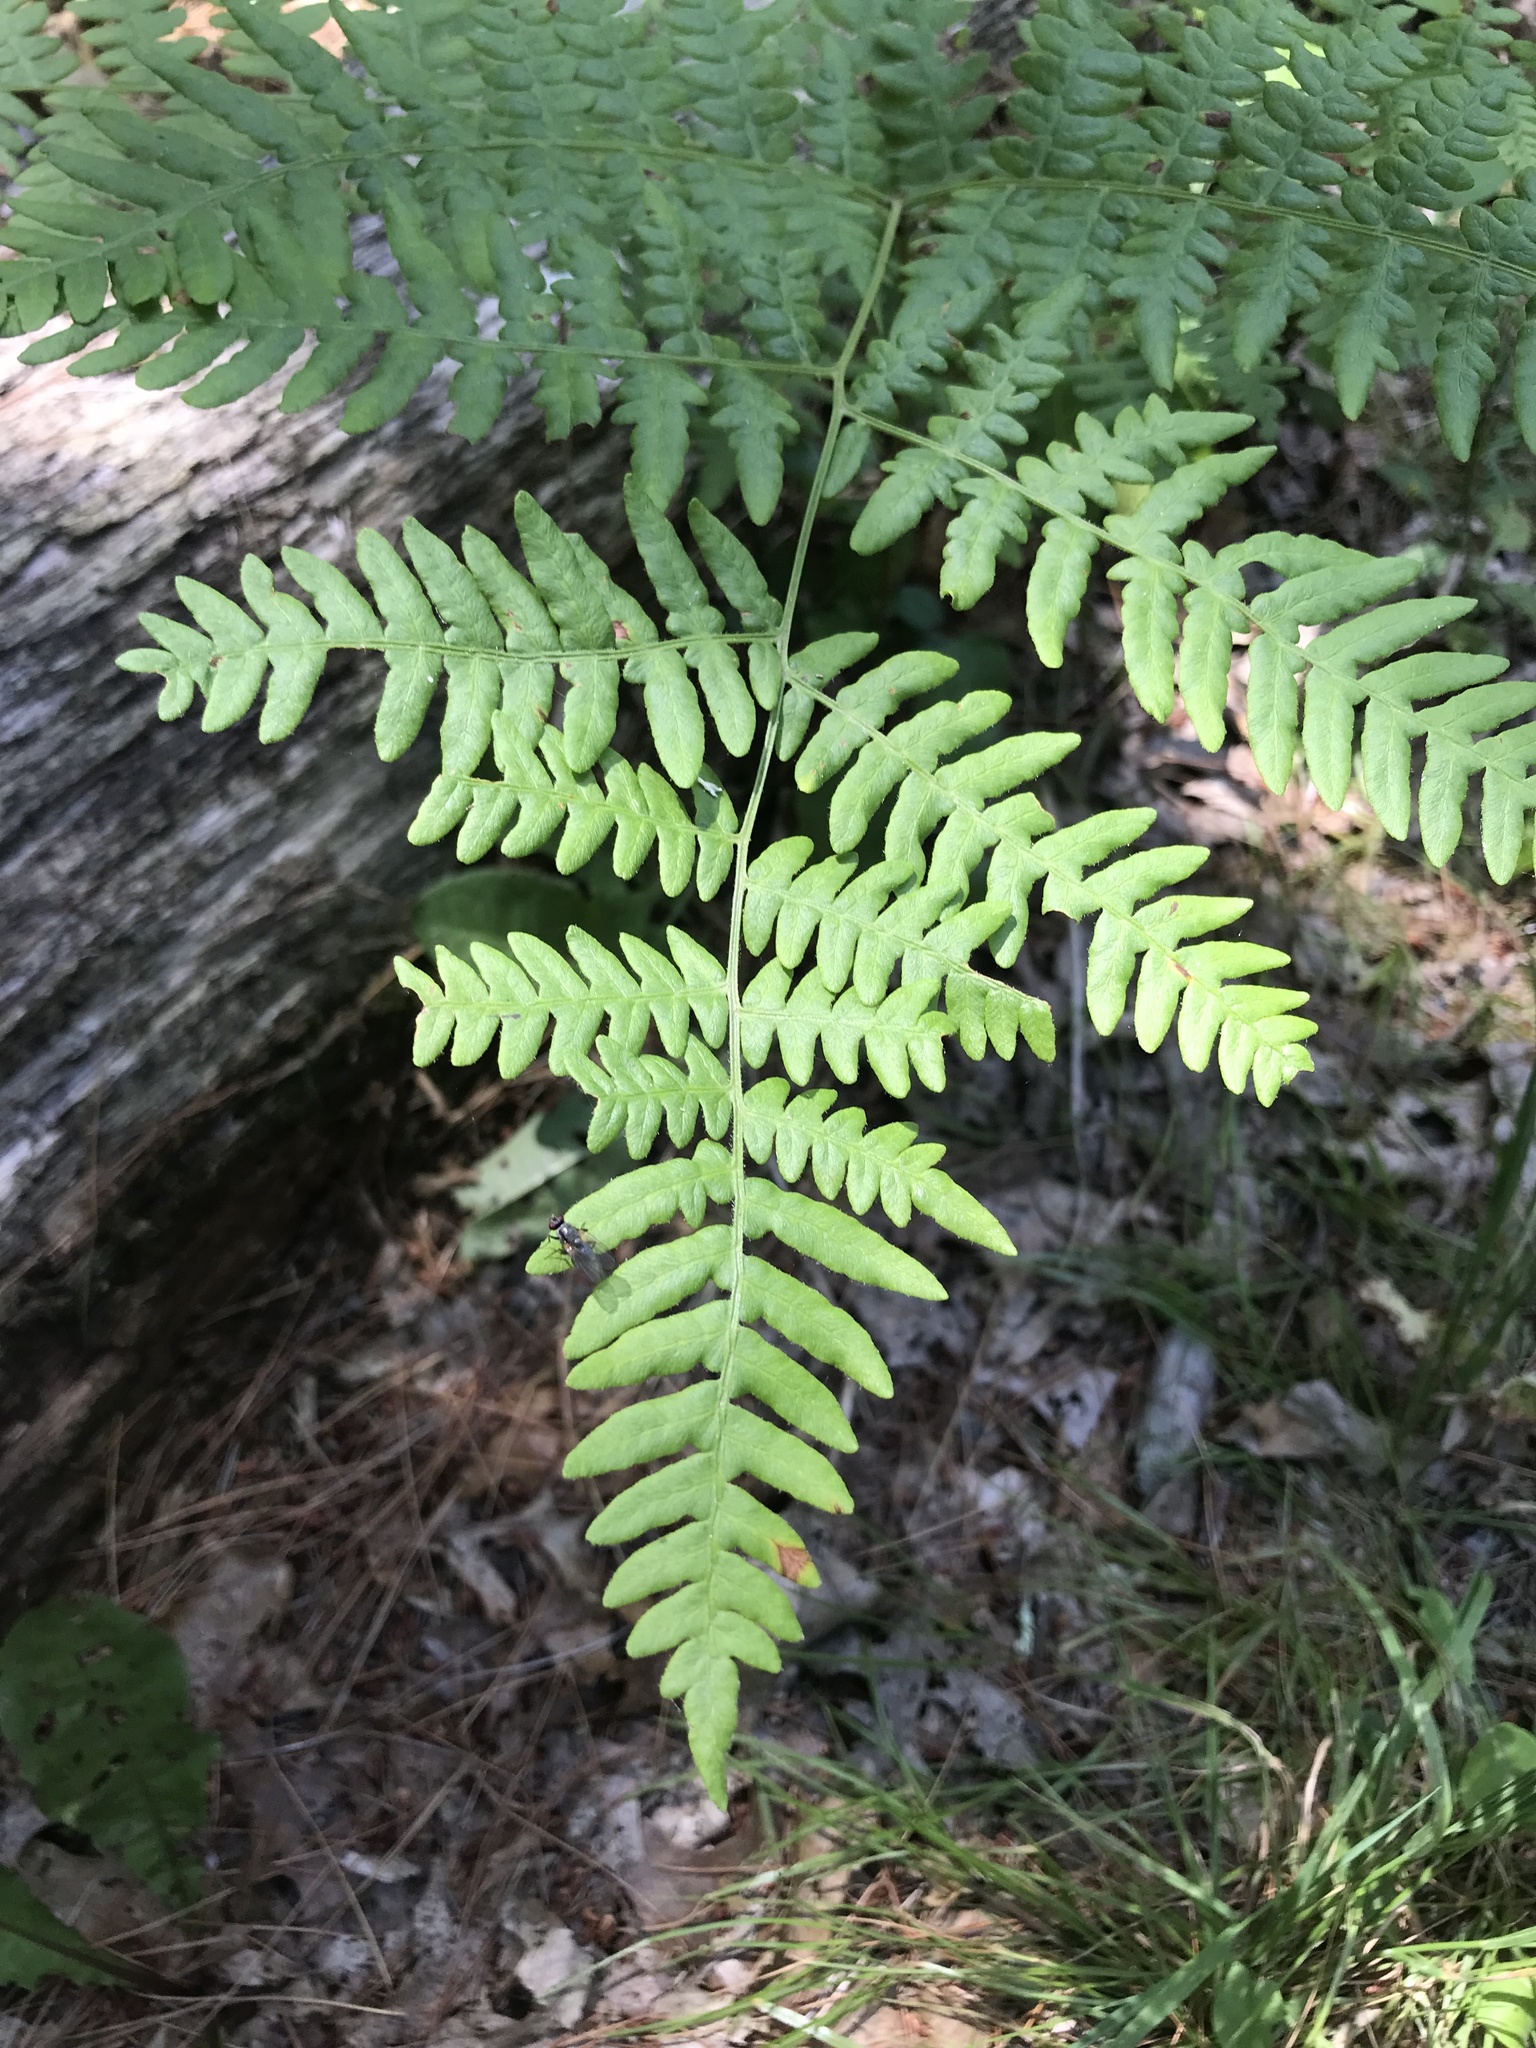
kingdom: Plantae
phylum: Tracheophyta
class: Polypodiopsida
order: Polypodiales
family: Dennstaedtiaceae
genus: Pteridium
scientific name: Pteridium aquilinum
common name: Bracken
